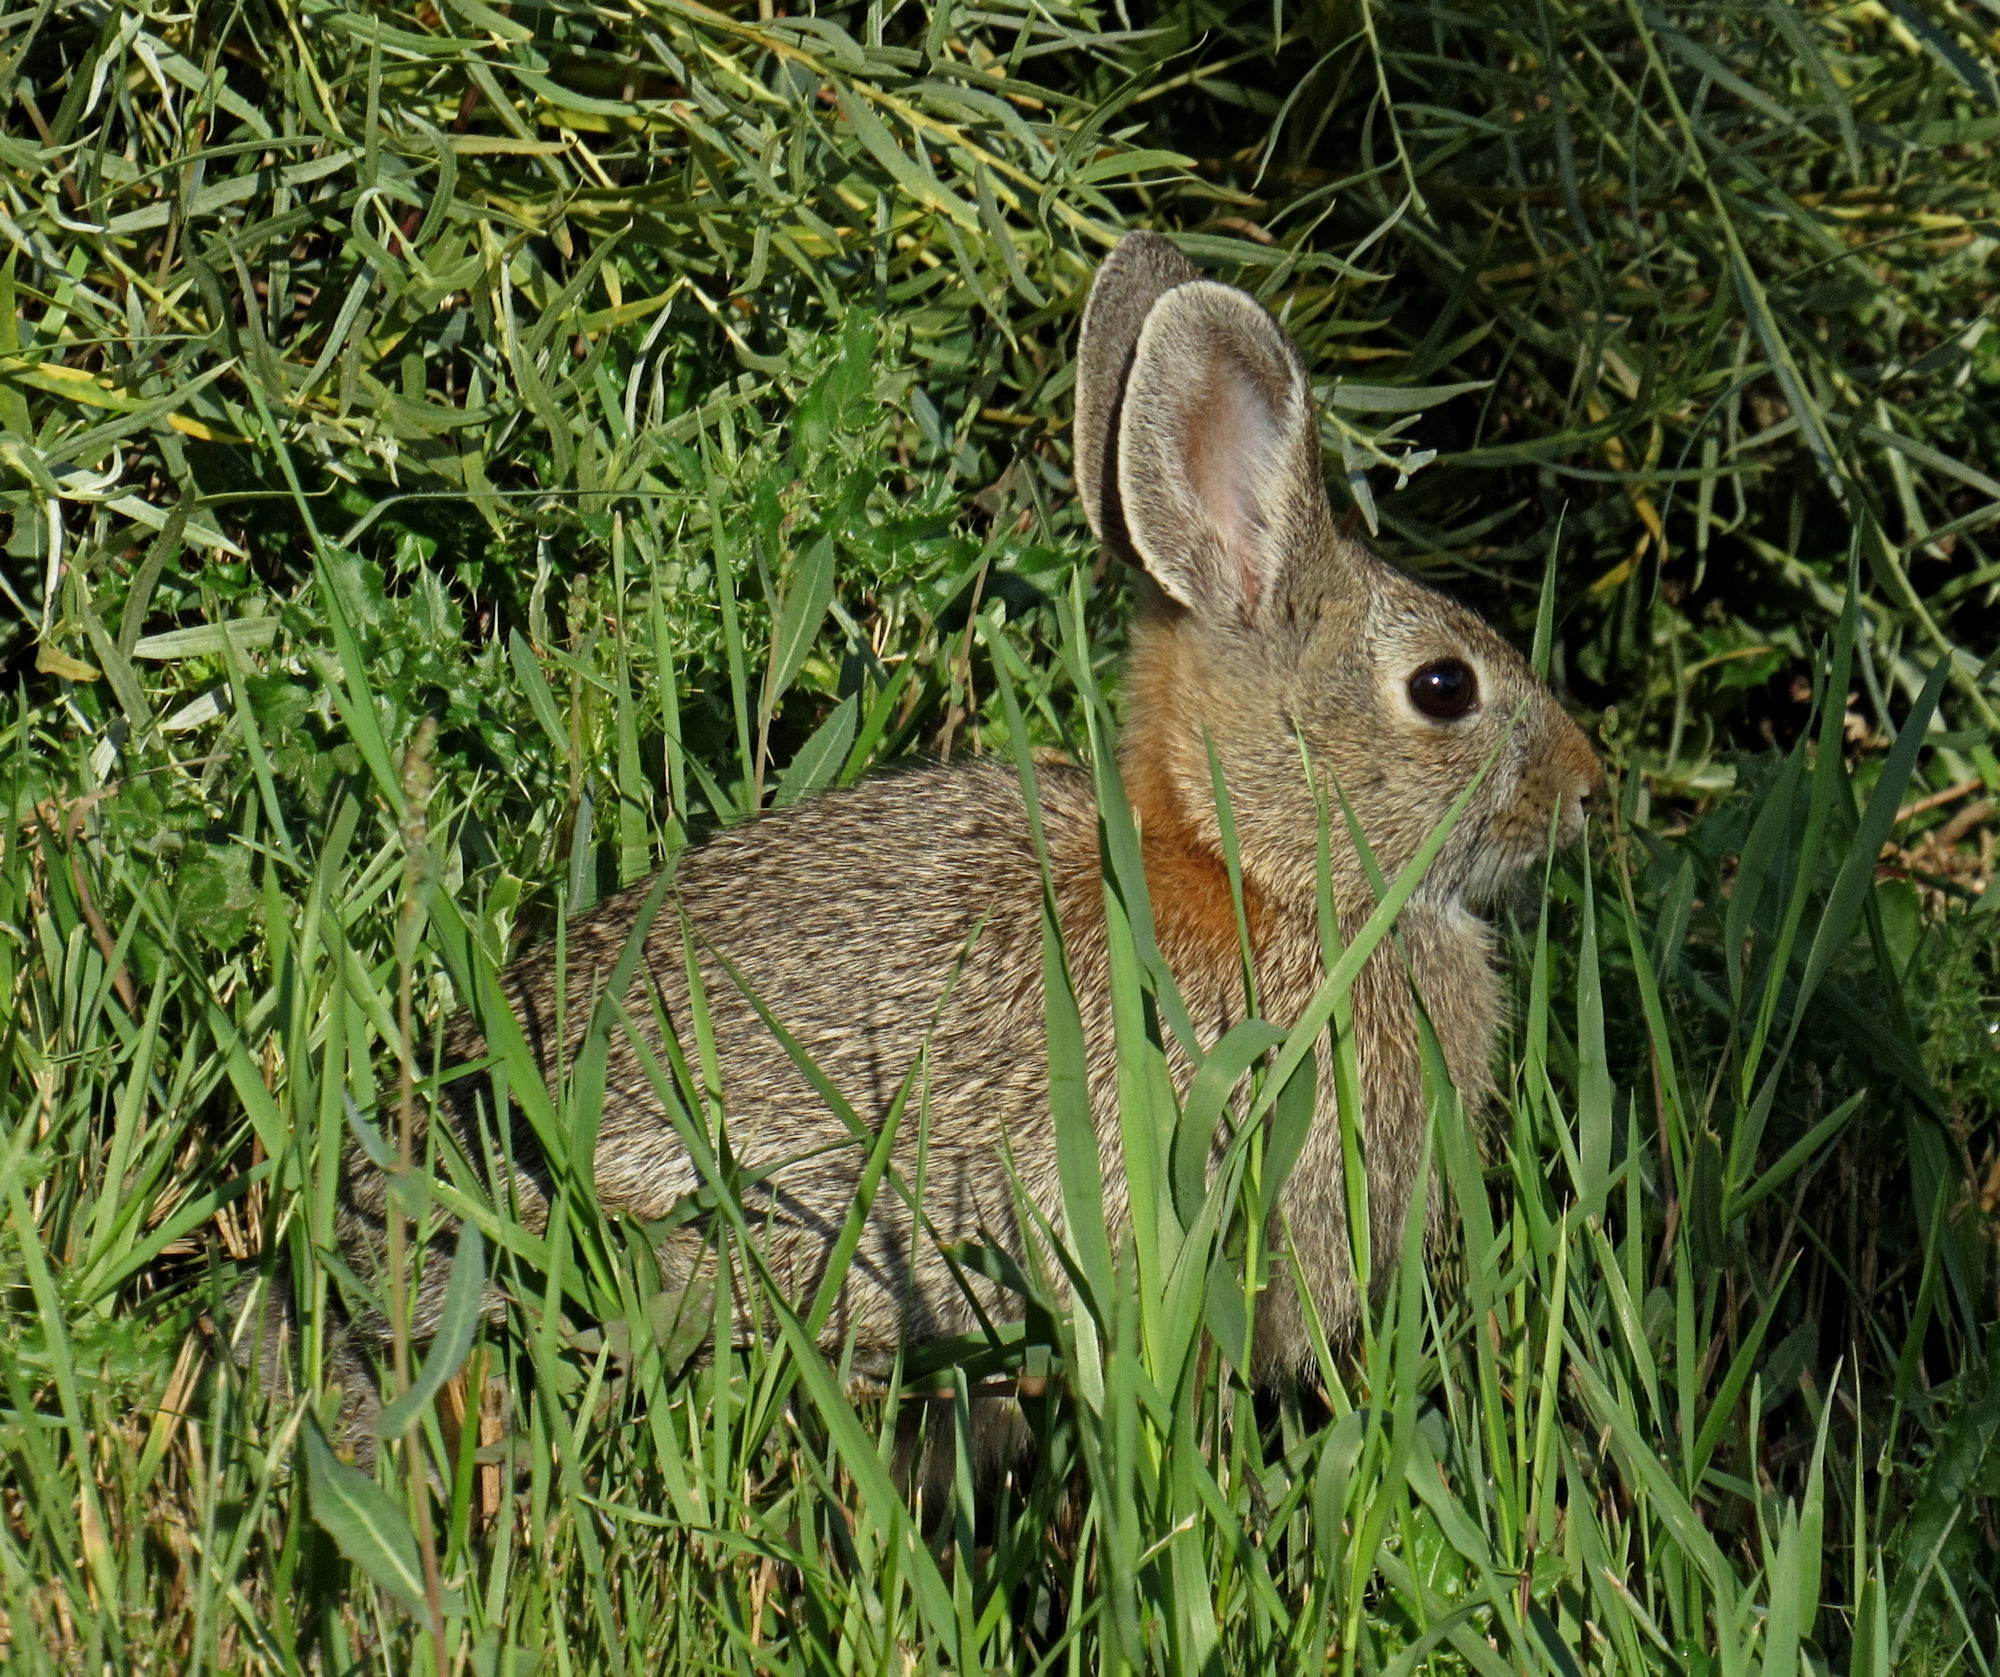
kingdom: Animalia
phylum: Chordata
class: Mammalia
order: Lagomorpha
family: Leporidae
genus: Sylvilagus
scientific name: Sylvilagus nuttallii
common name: Mountain cottontail
